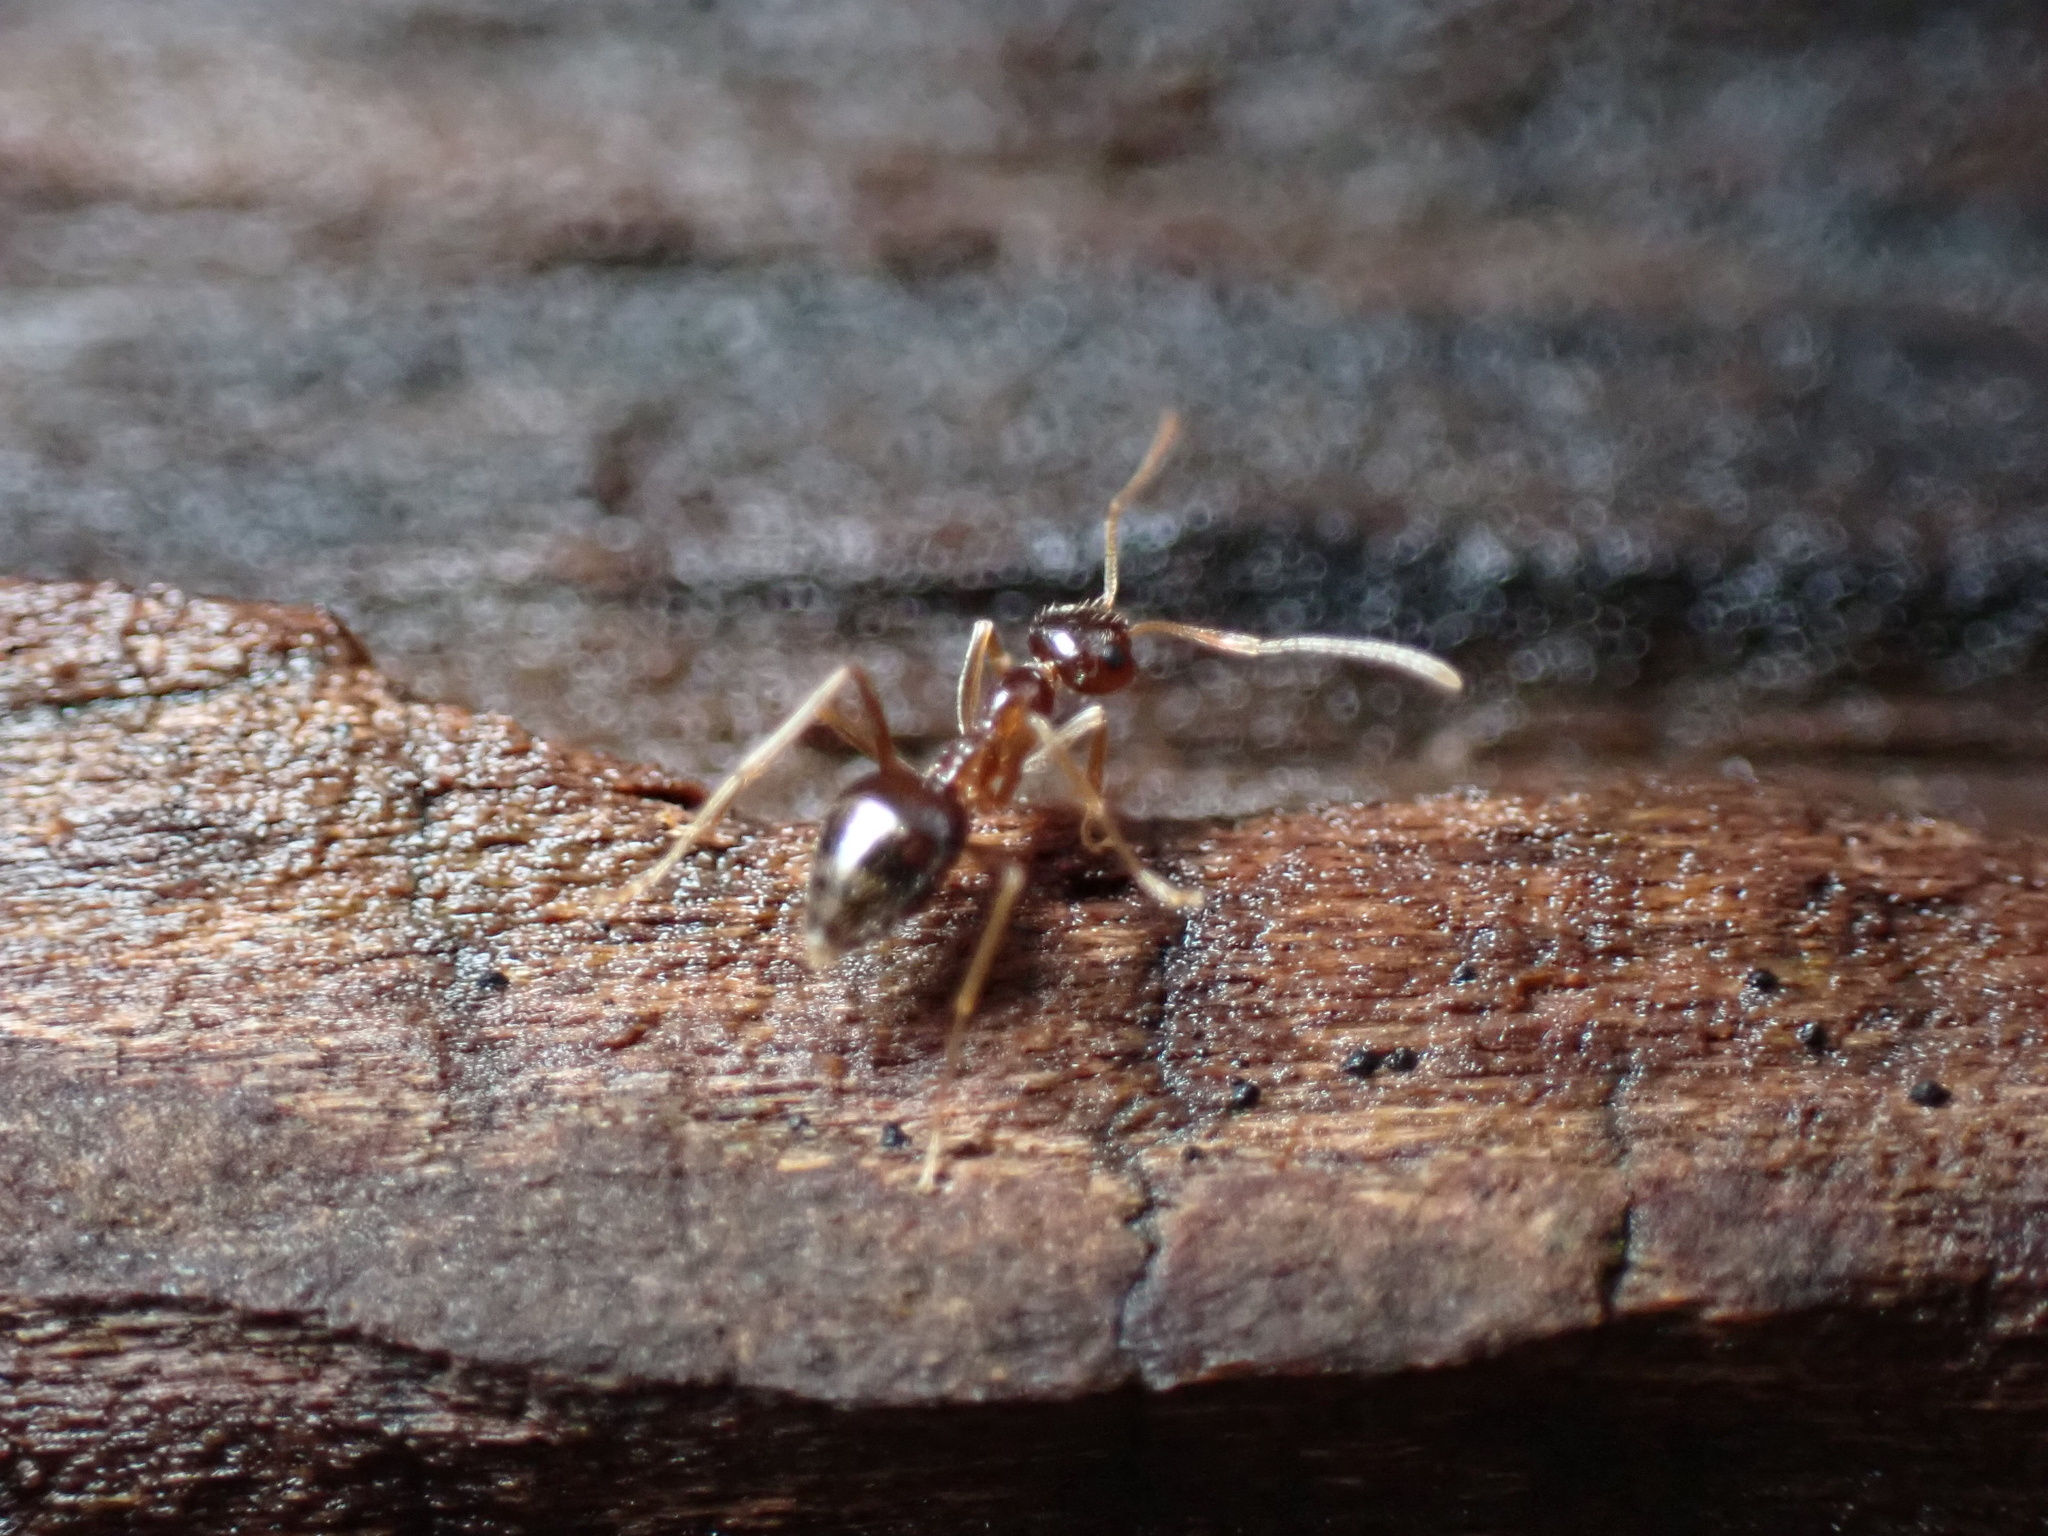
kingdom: Animalia
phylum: Arthropoda
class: Insecta
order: Hymenoptera
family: Formicidae
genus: Prenolepis
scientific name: Prenolepis imparis
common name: Small honey ant
